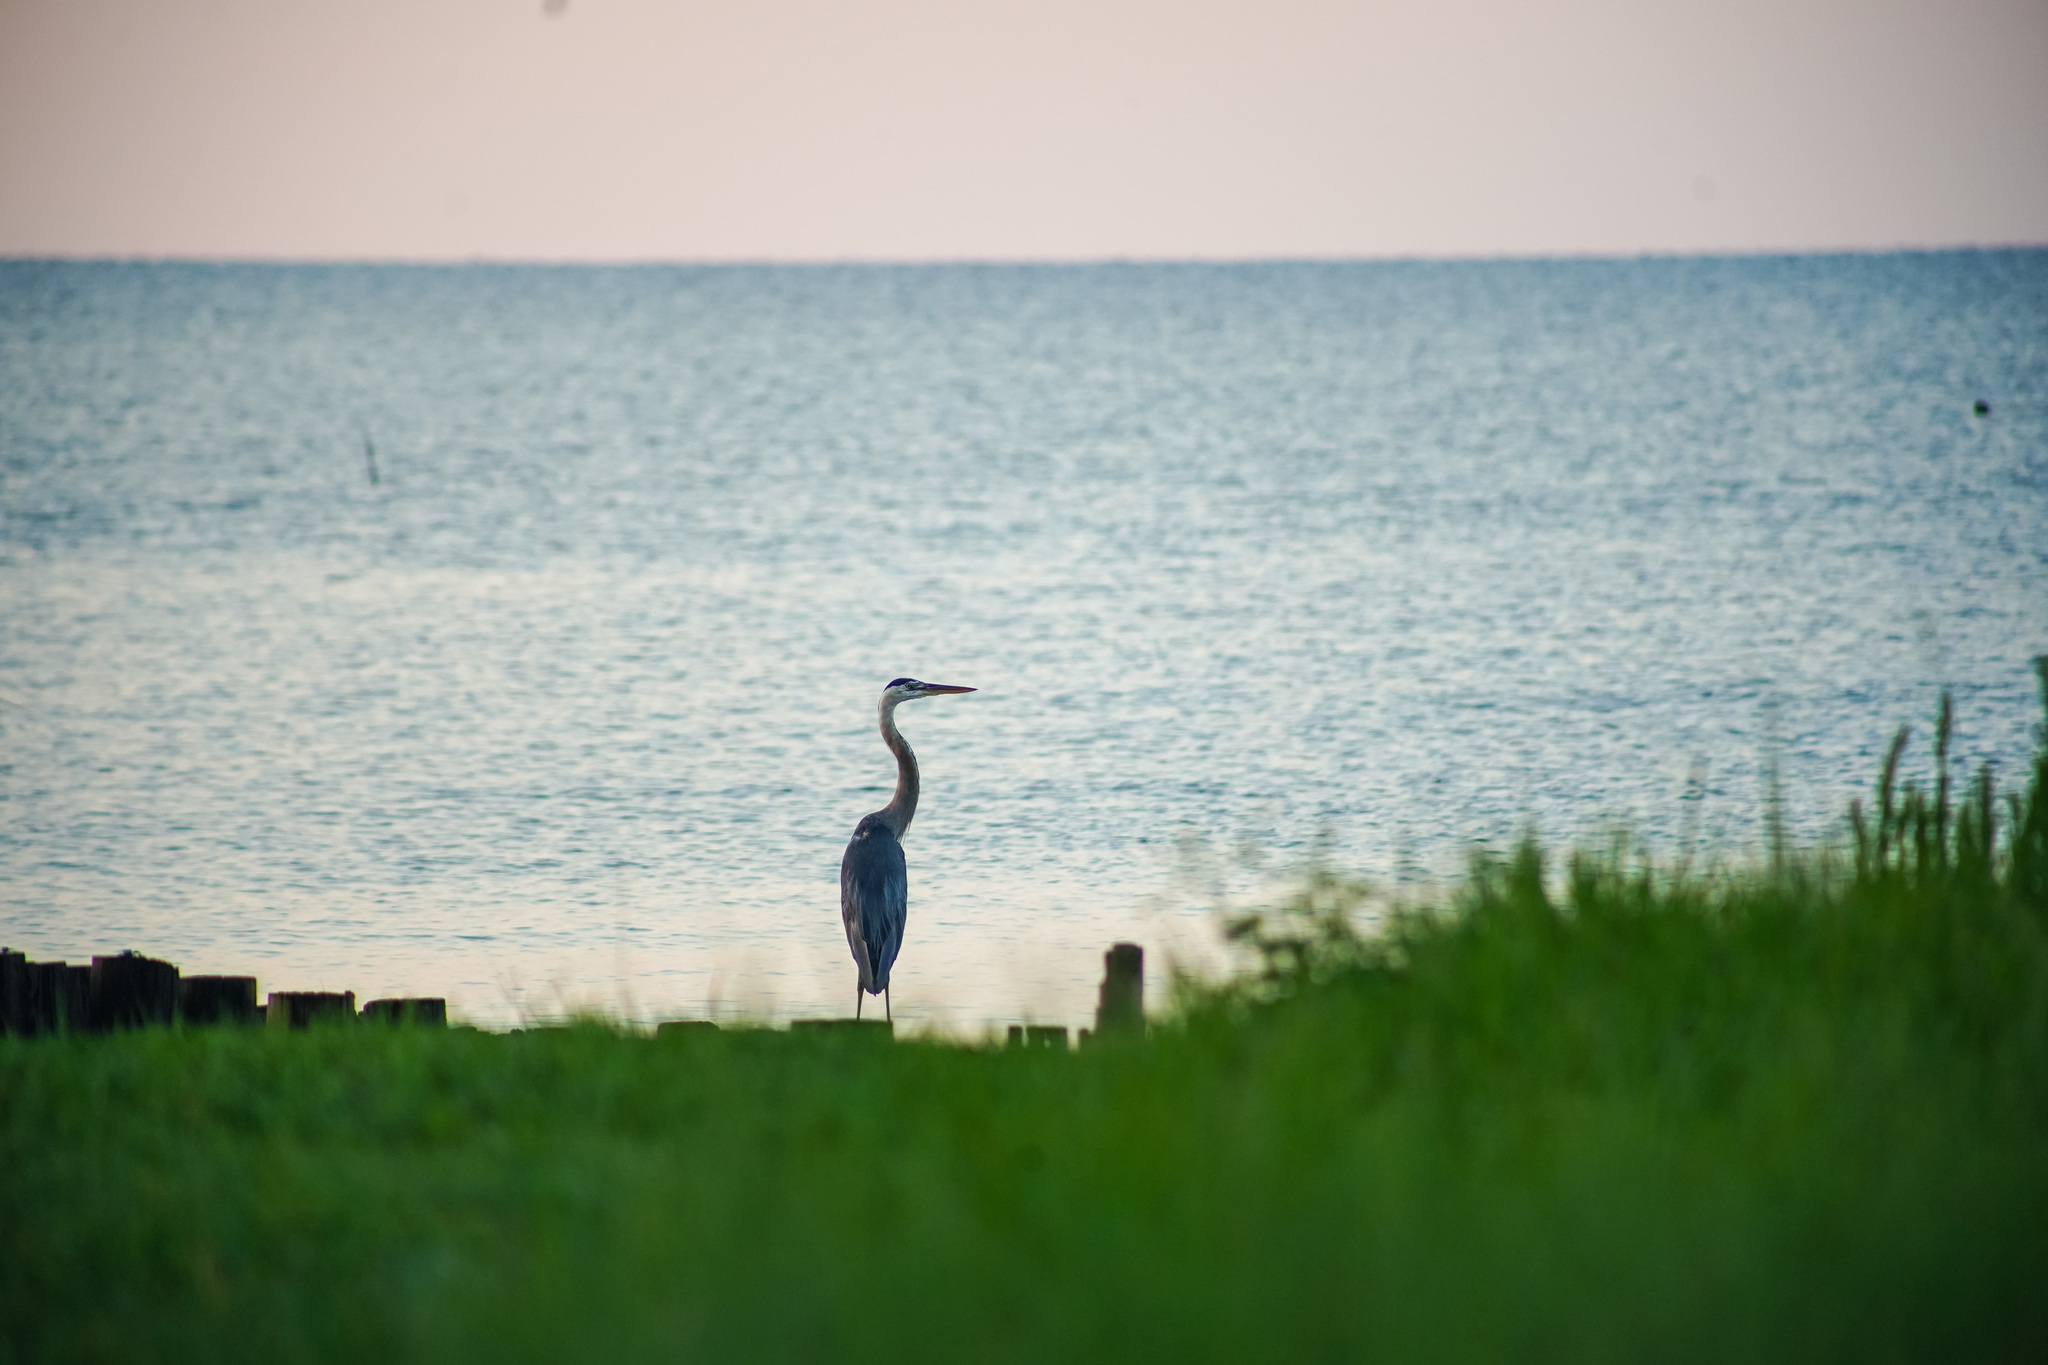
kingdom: Animalia
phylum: Chordata
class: Aves
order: Pelecaniformes
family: Ardeidae
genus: Ardea
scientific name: Ardea herodias
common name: Great blue heron
